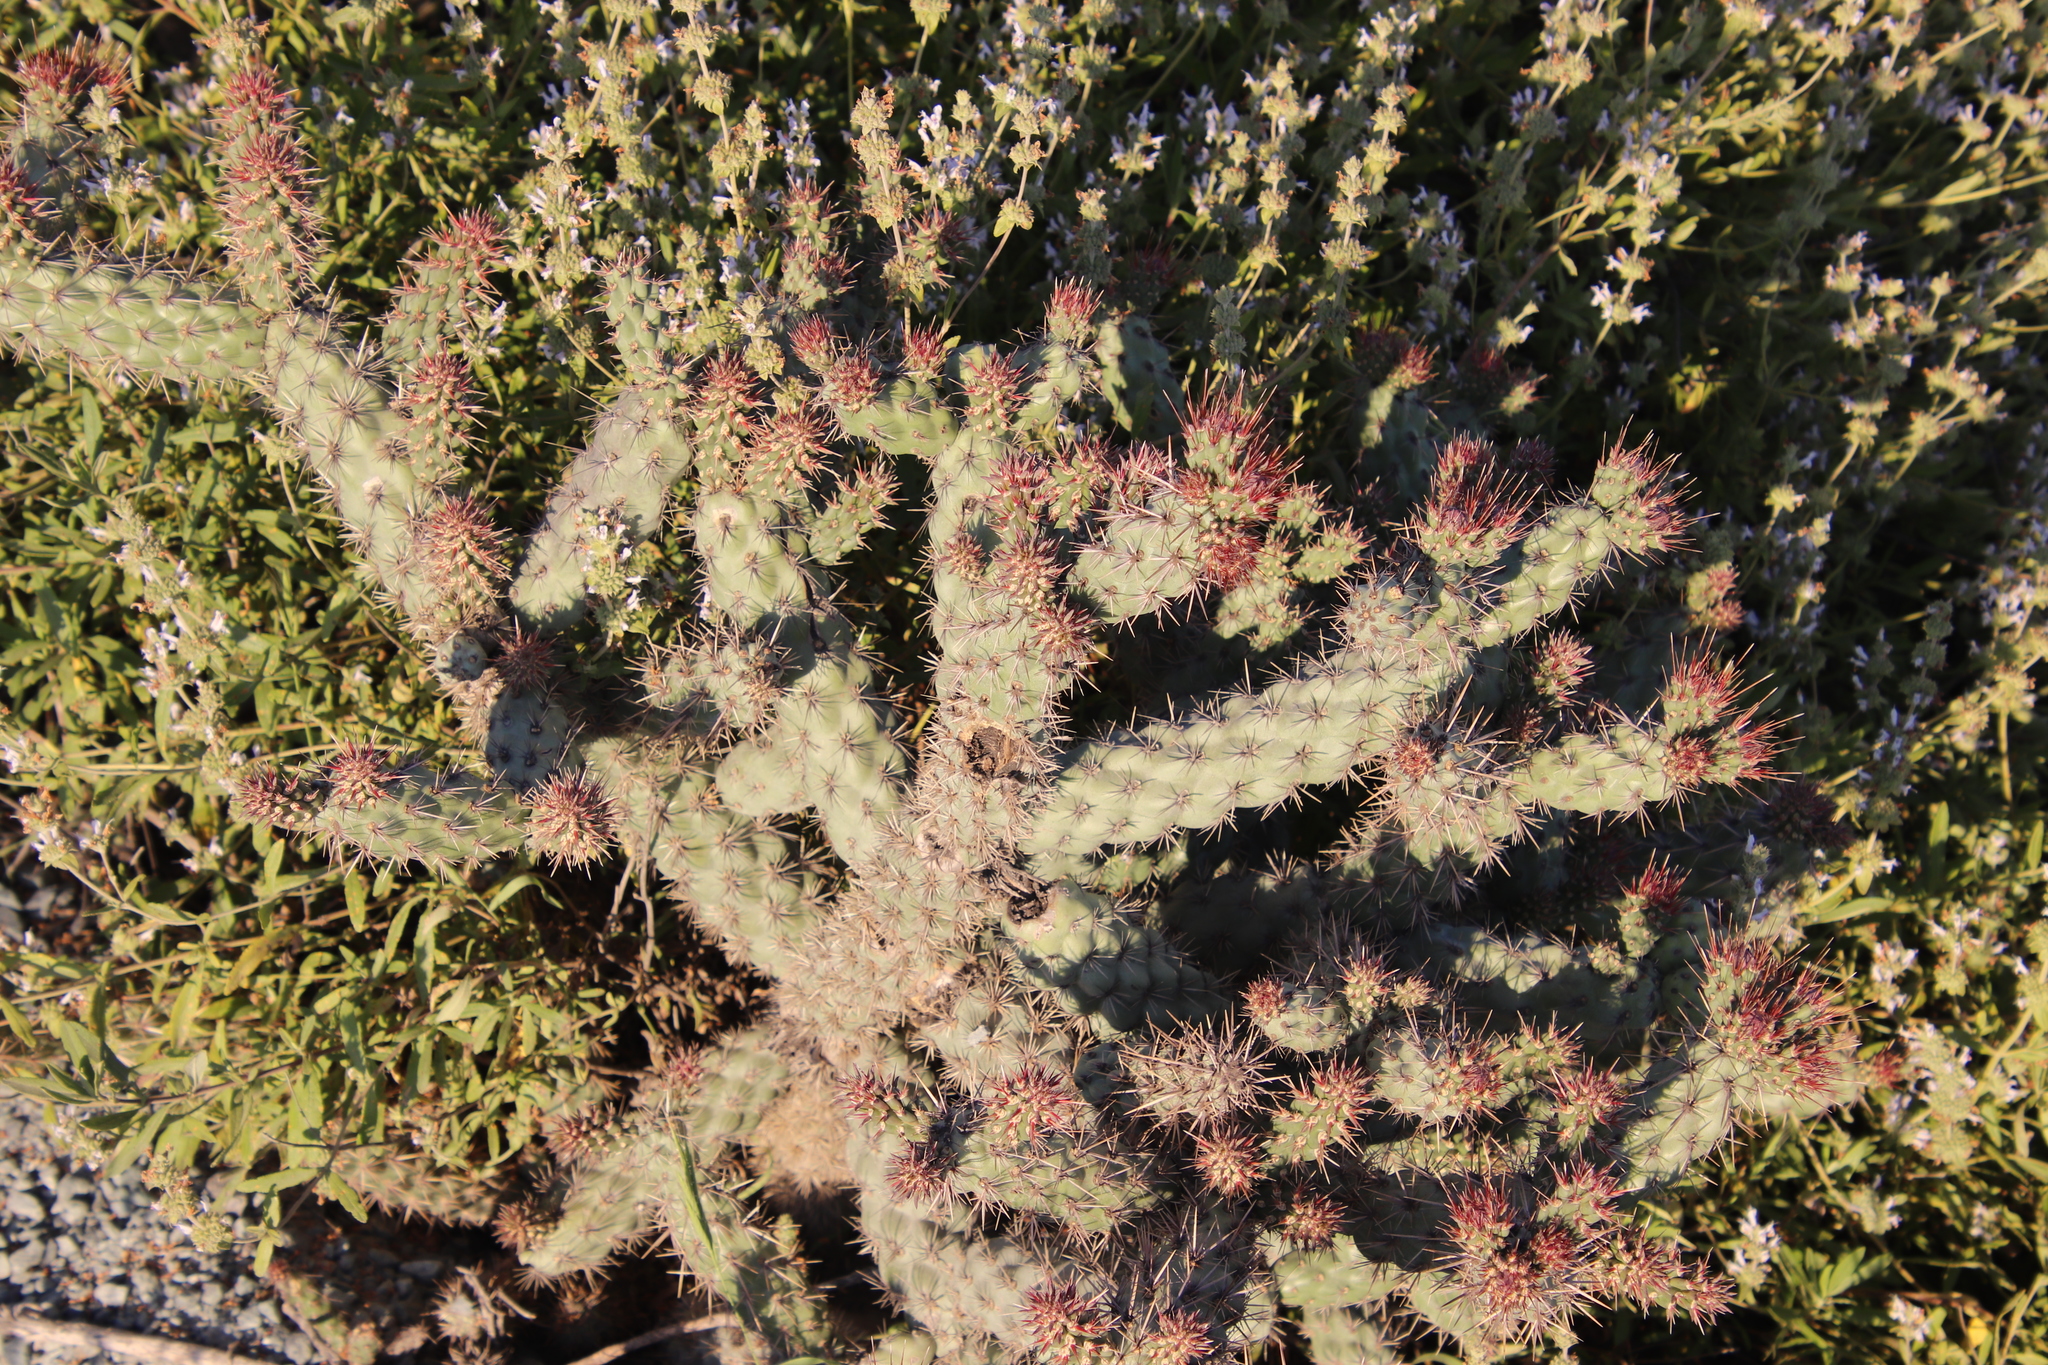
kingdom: Plantae
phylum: Tracheophyta
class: Magnoliopsida
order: Caryophyllales
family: Cactaceae
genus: Cylindropuntia
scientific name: Cylindropuntia prolifera
